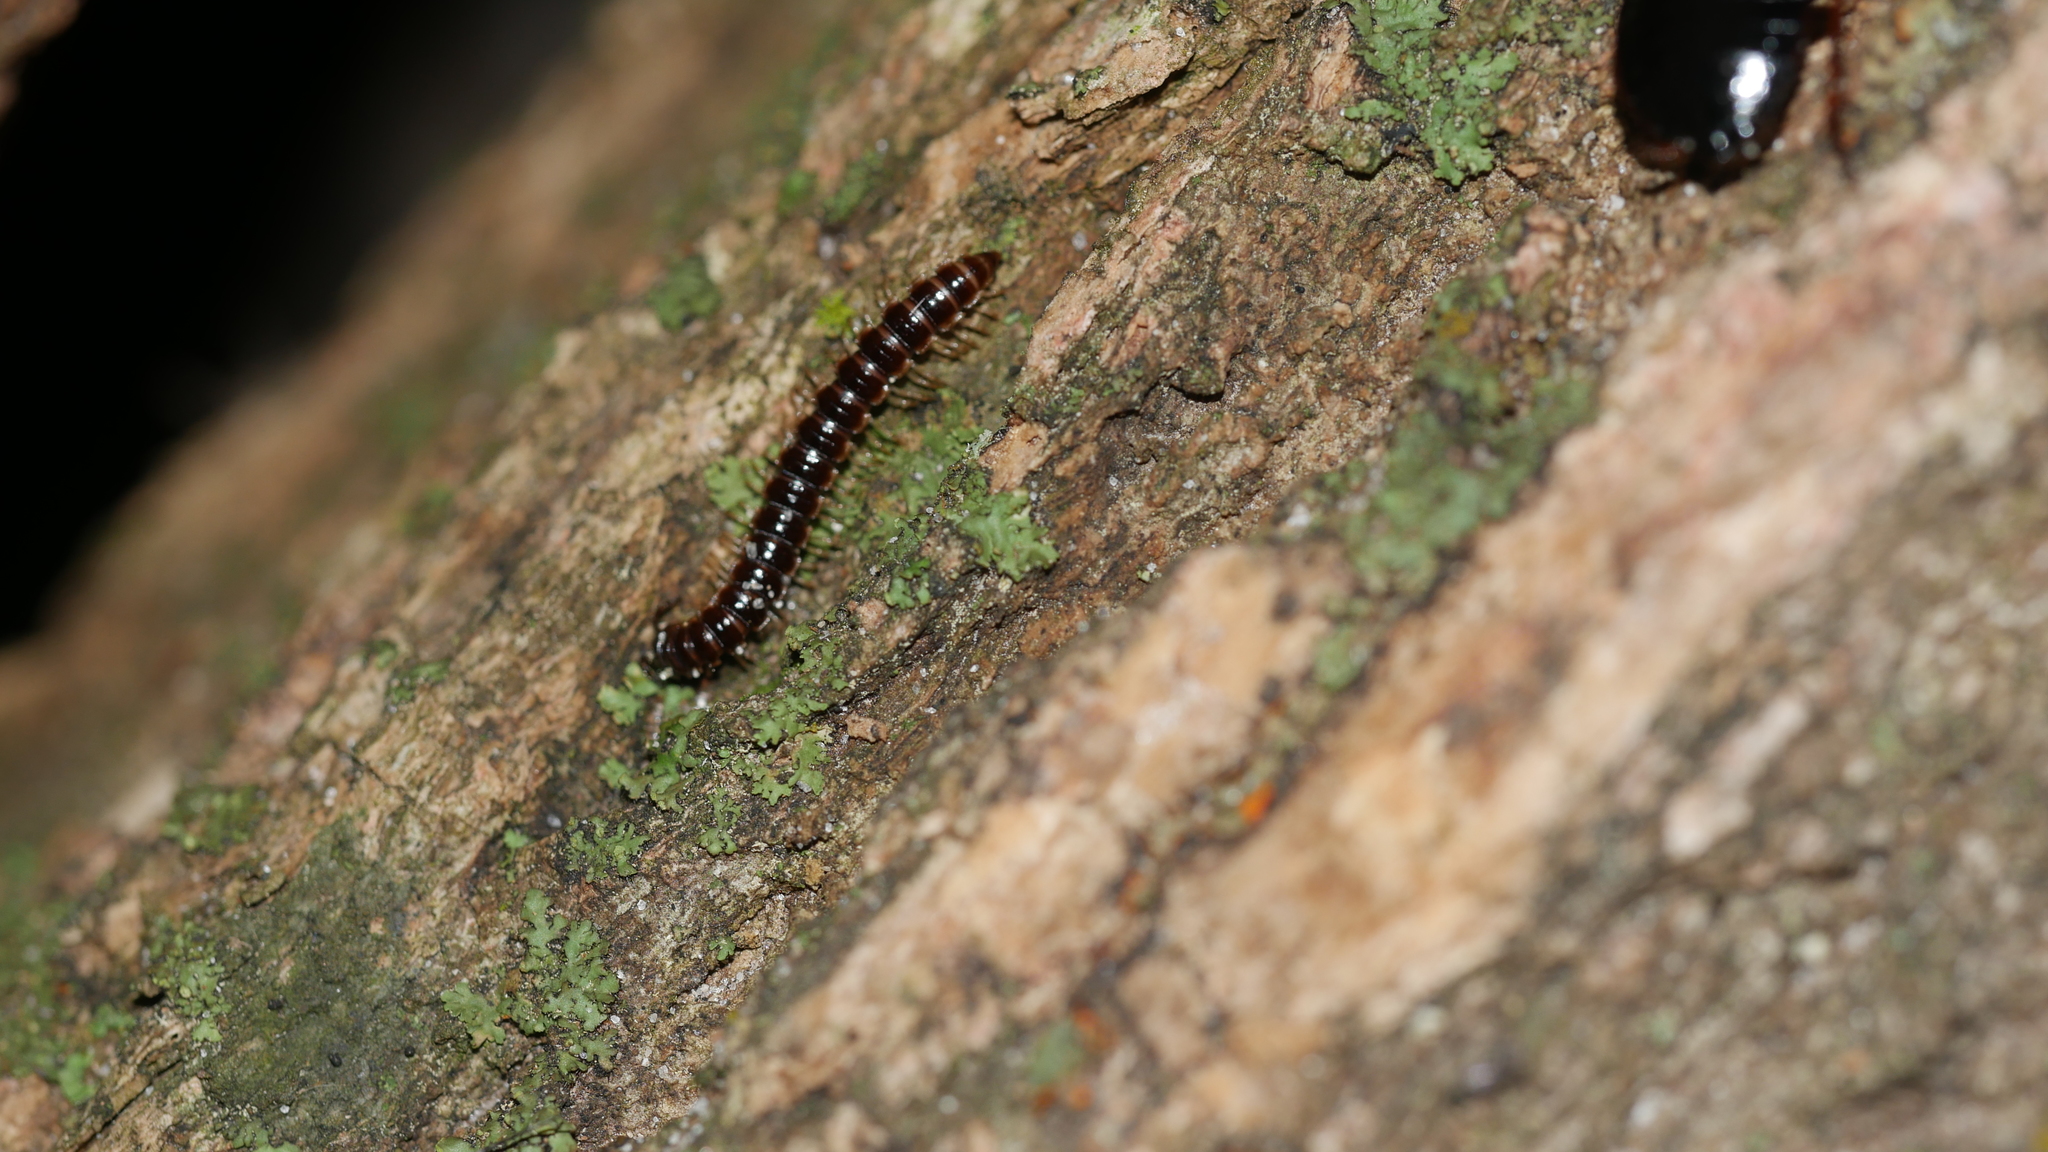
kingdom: Animalia
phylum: Arthropoda
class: Diplopoda
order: Polydesmida
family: Paradoxosomatidae
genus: Oxidus
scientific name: Oxidus gracilis
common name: Greenhouse millipede
